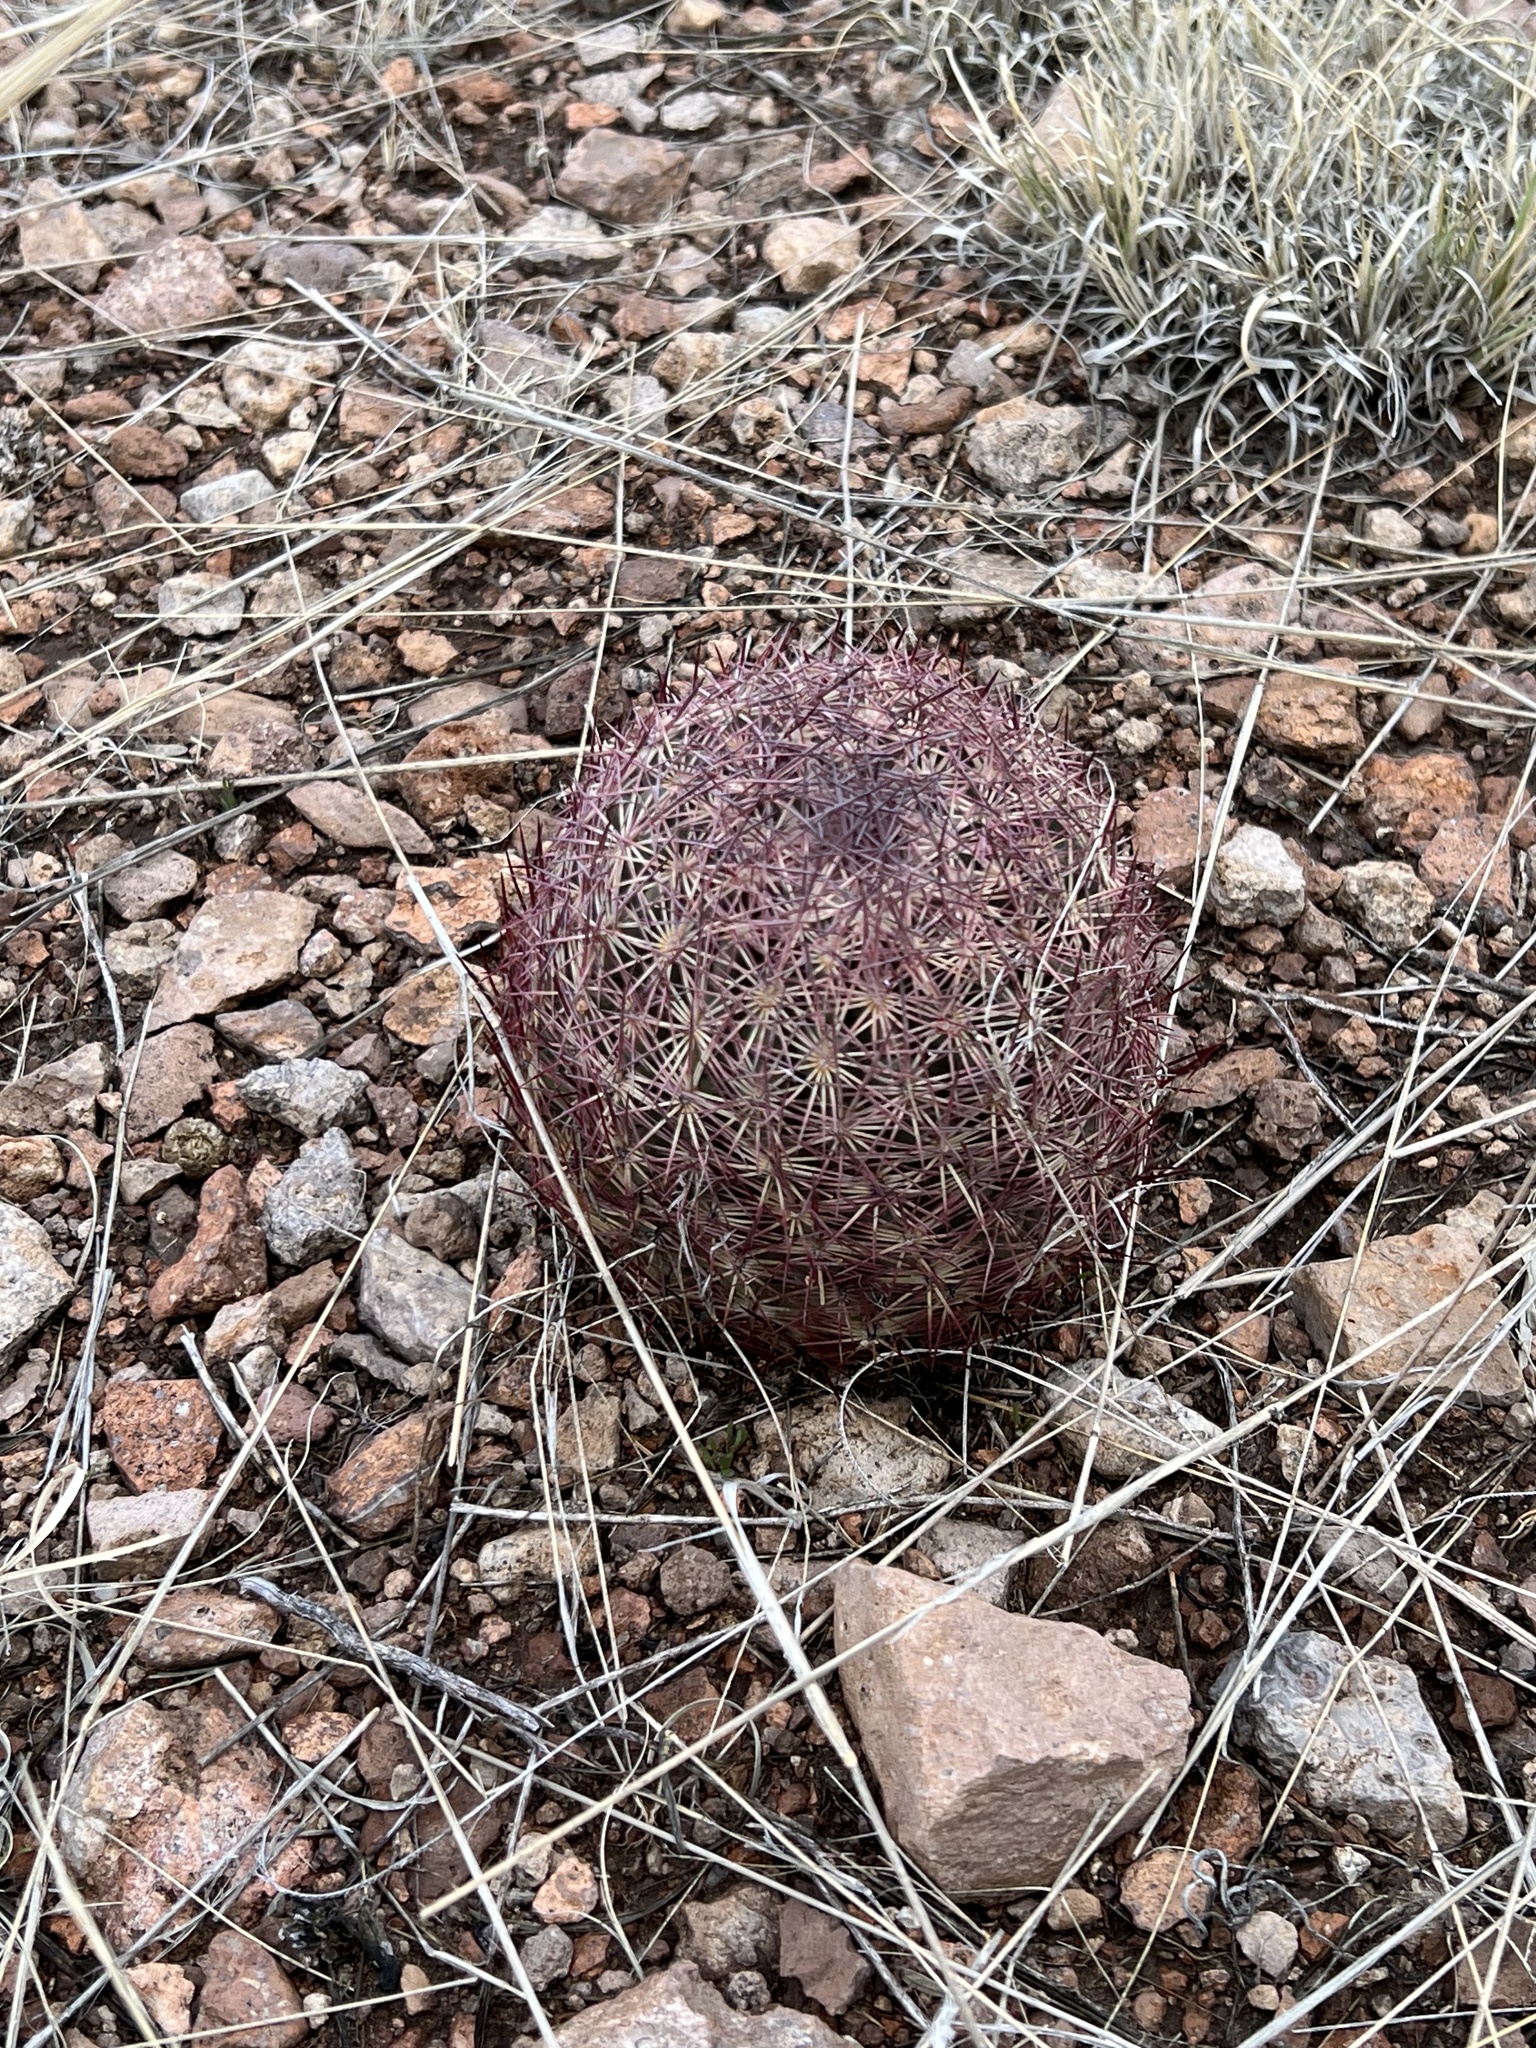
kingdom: Plantae
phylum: Tracheophyta
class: Magnoliopsida
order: Caryophyllales
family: Cactaceae
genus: Sclerocactus
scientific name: Sclerocactus johnsonii
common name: Eight-spine fishhook cactus
